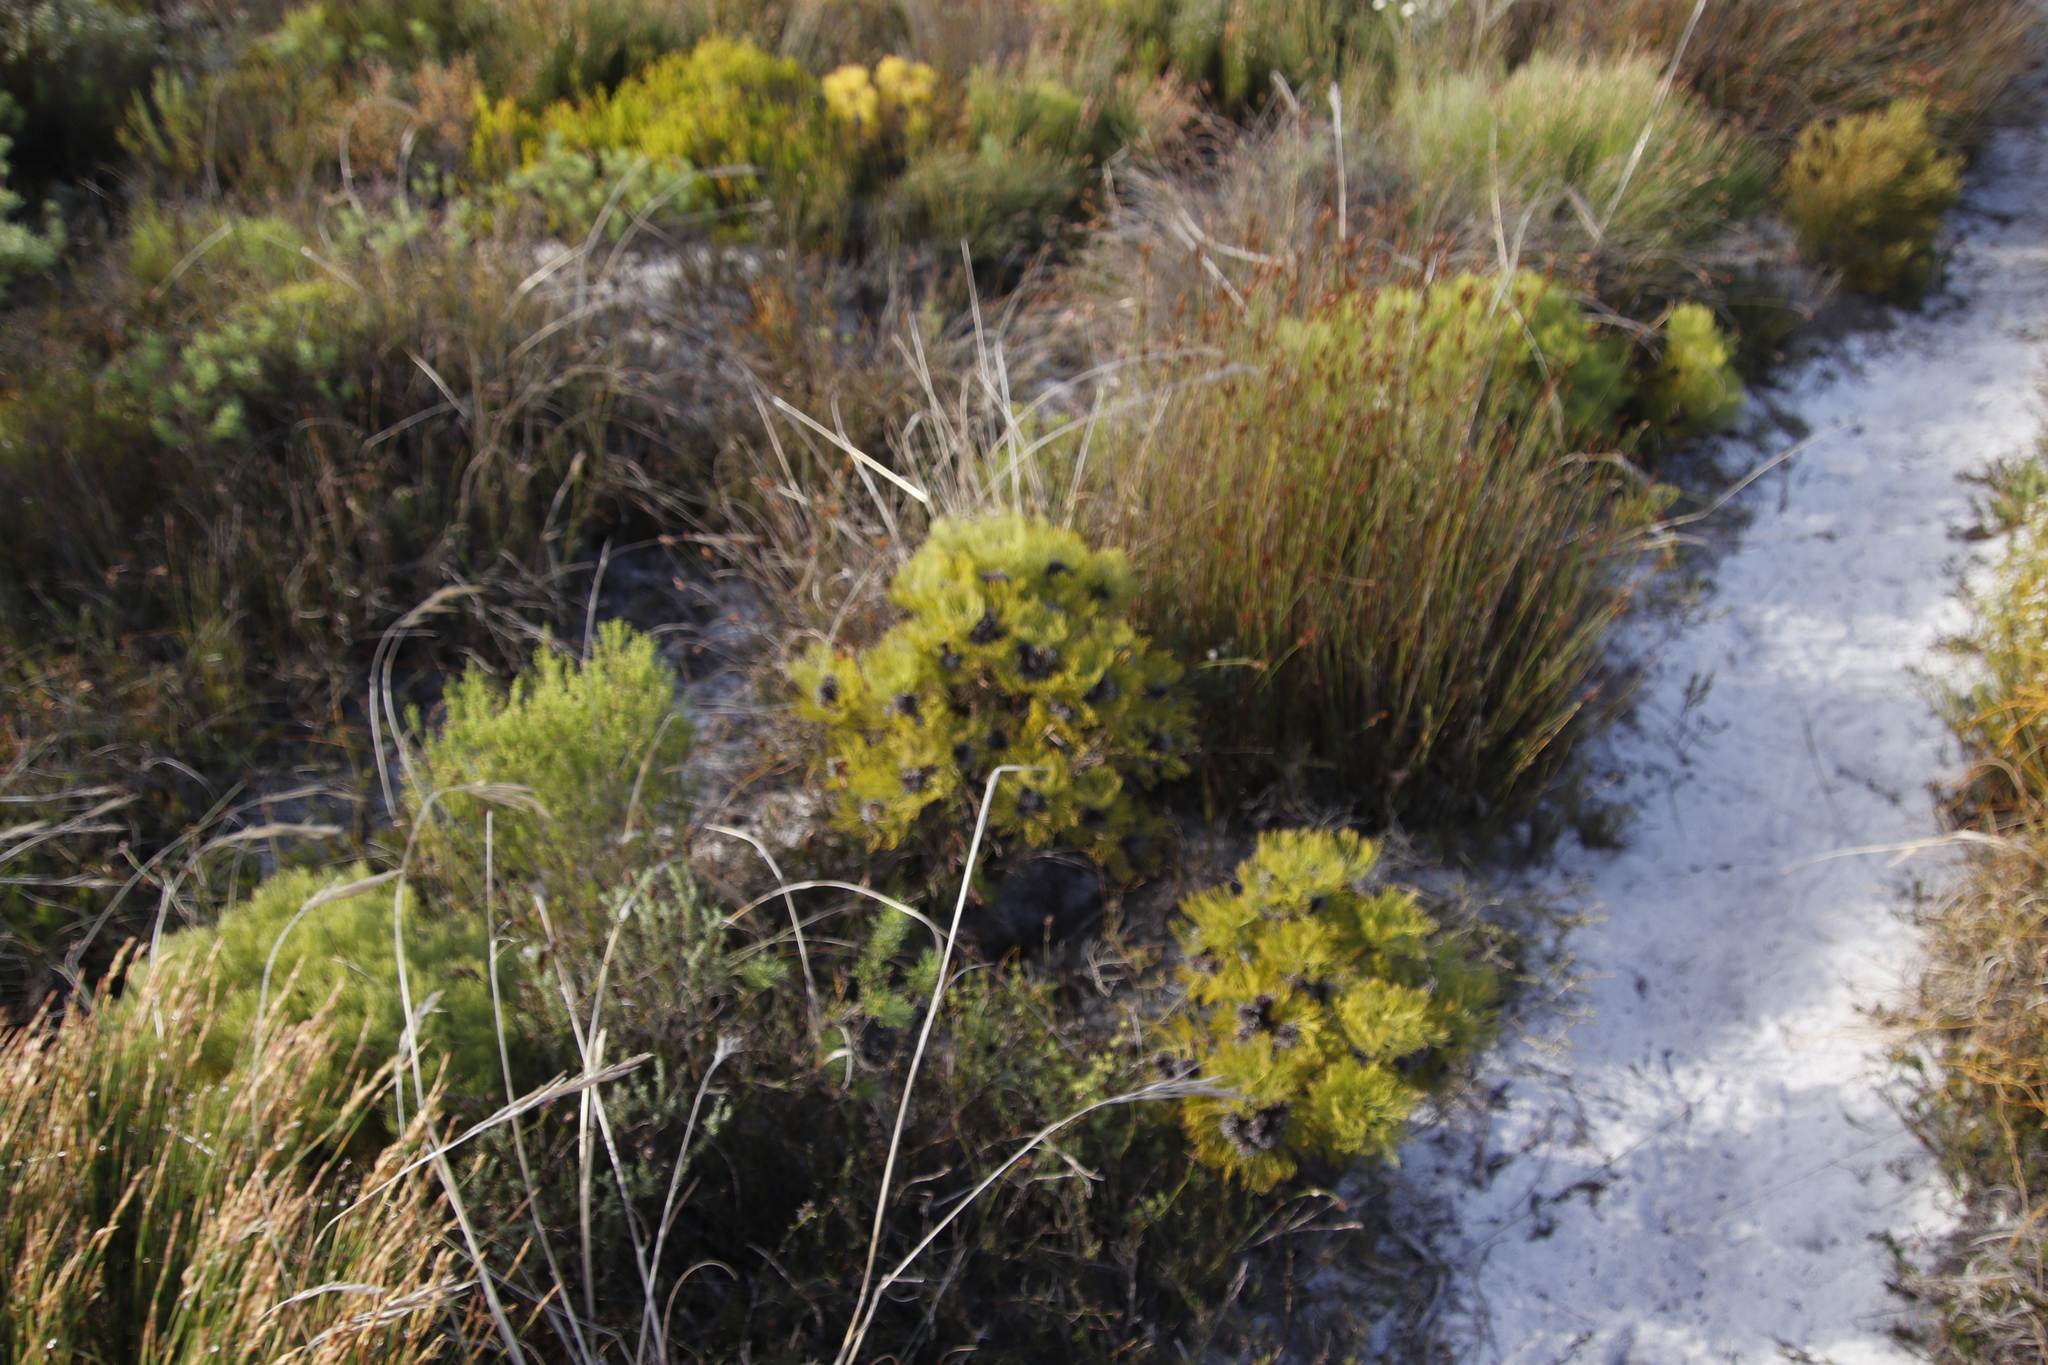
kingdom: Plantae
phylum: Tracheophyta
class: Magnoliopsida
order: Proteales
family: Proteaceae
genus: Serruria
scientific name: Serruria glomerata
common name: Cluster spiderhead
